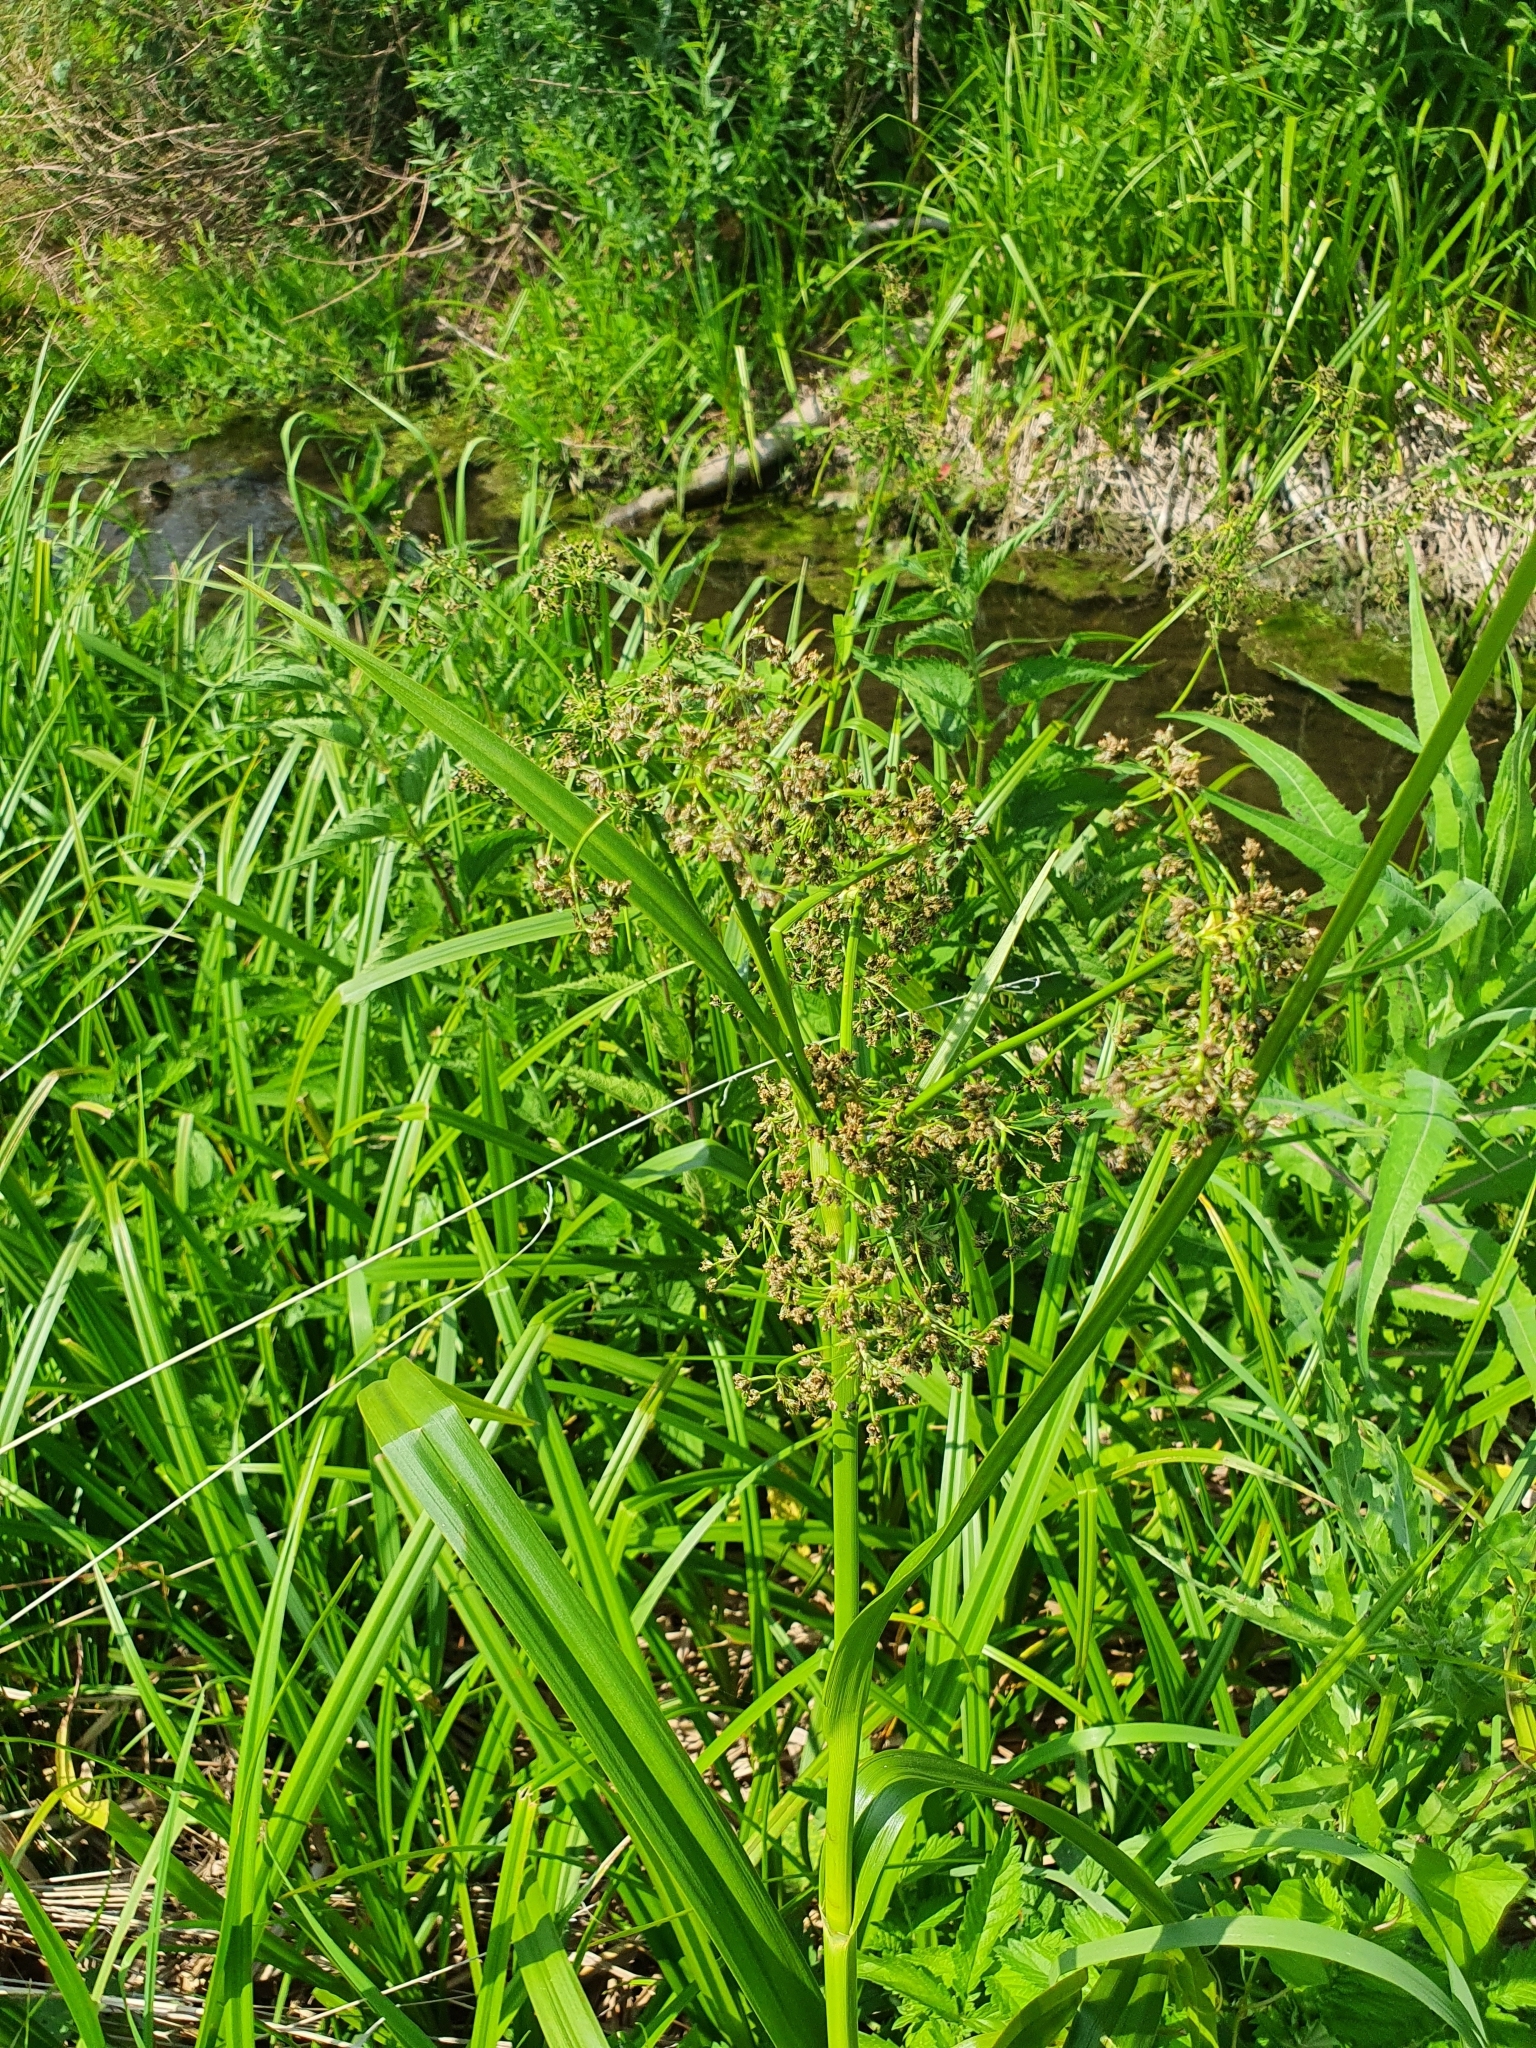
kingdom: Plantae
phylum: Tracheophyta
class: Liliopsida
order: Poales
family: Cyperaceae
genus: Scirpus
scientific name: Scirpus sylvaticus
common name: Wood club-rush
